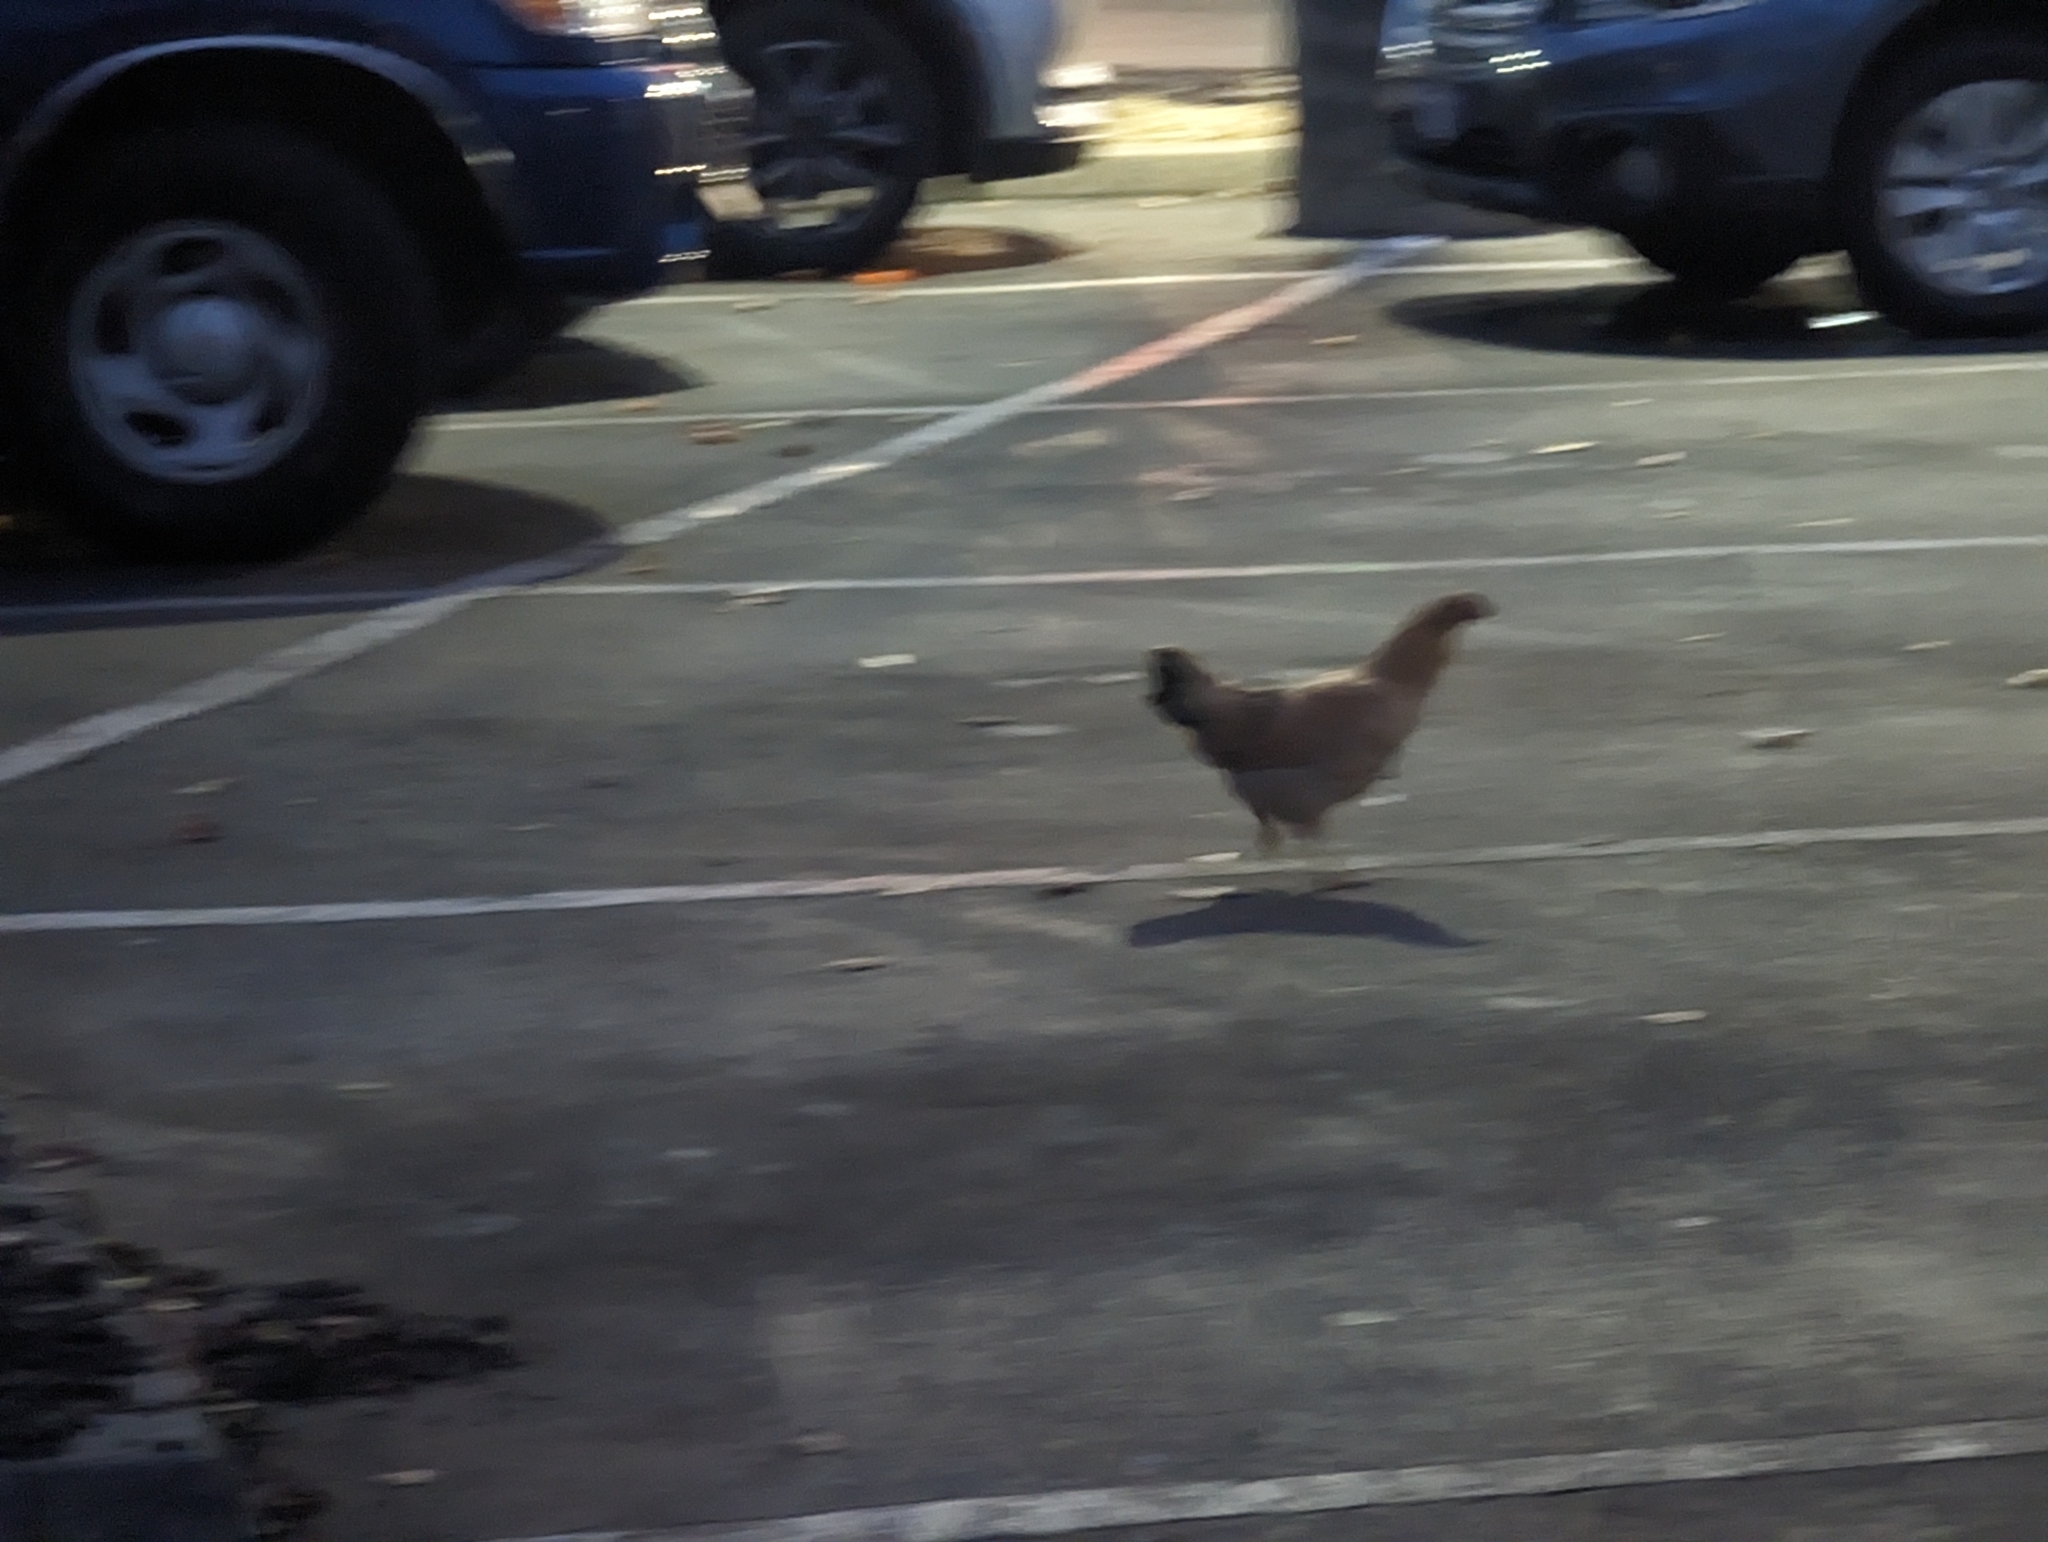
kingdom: Animalia
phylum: Chordata
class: Aves
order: Galliformes
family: Phasianidae
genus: Gallus
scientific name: Gallus gallus
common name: Red junglefowl
